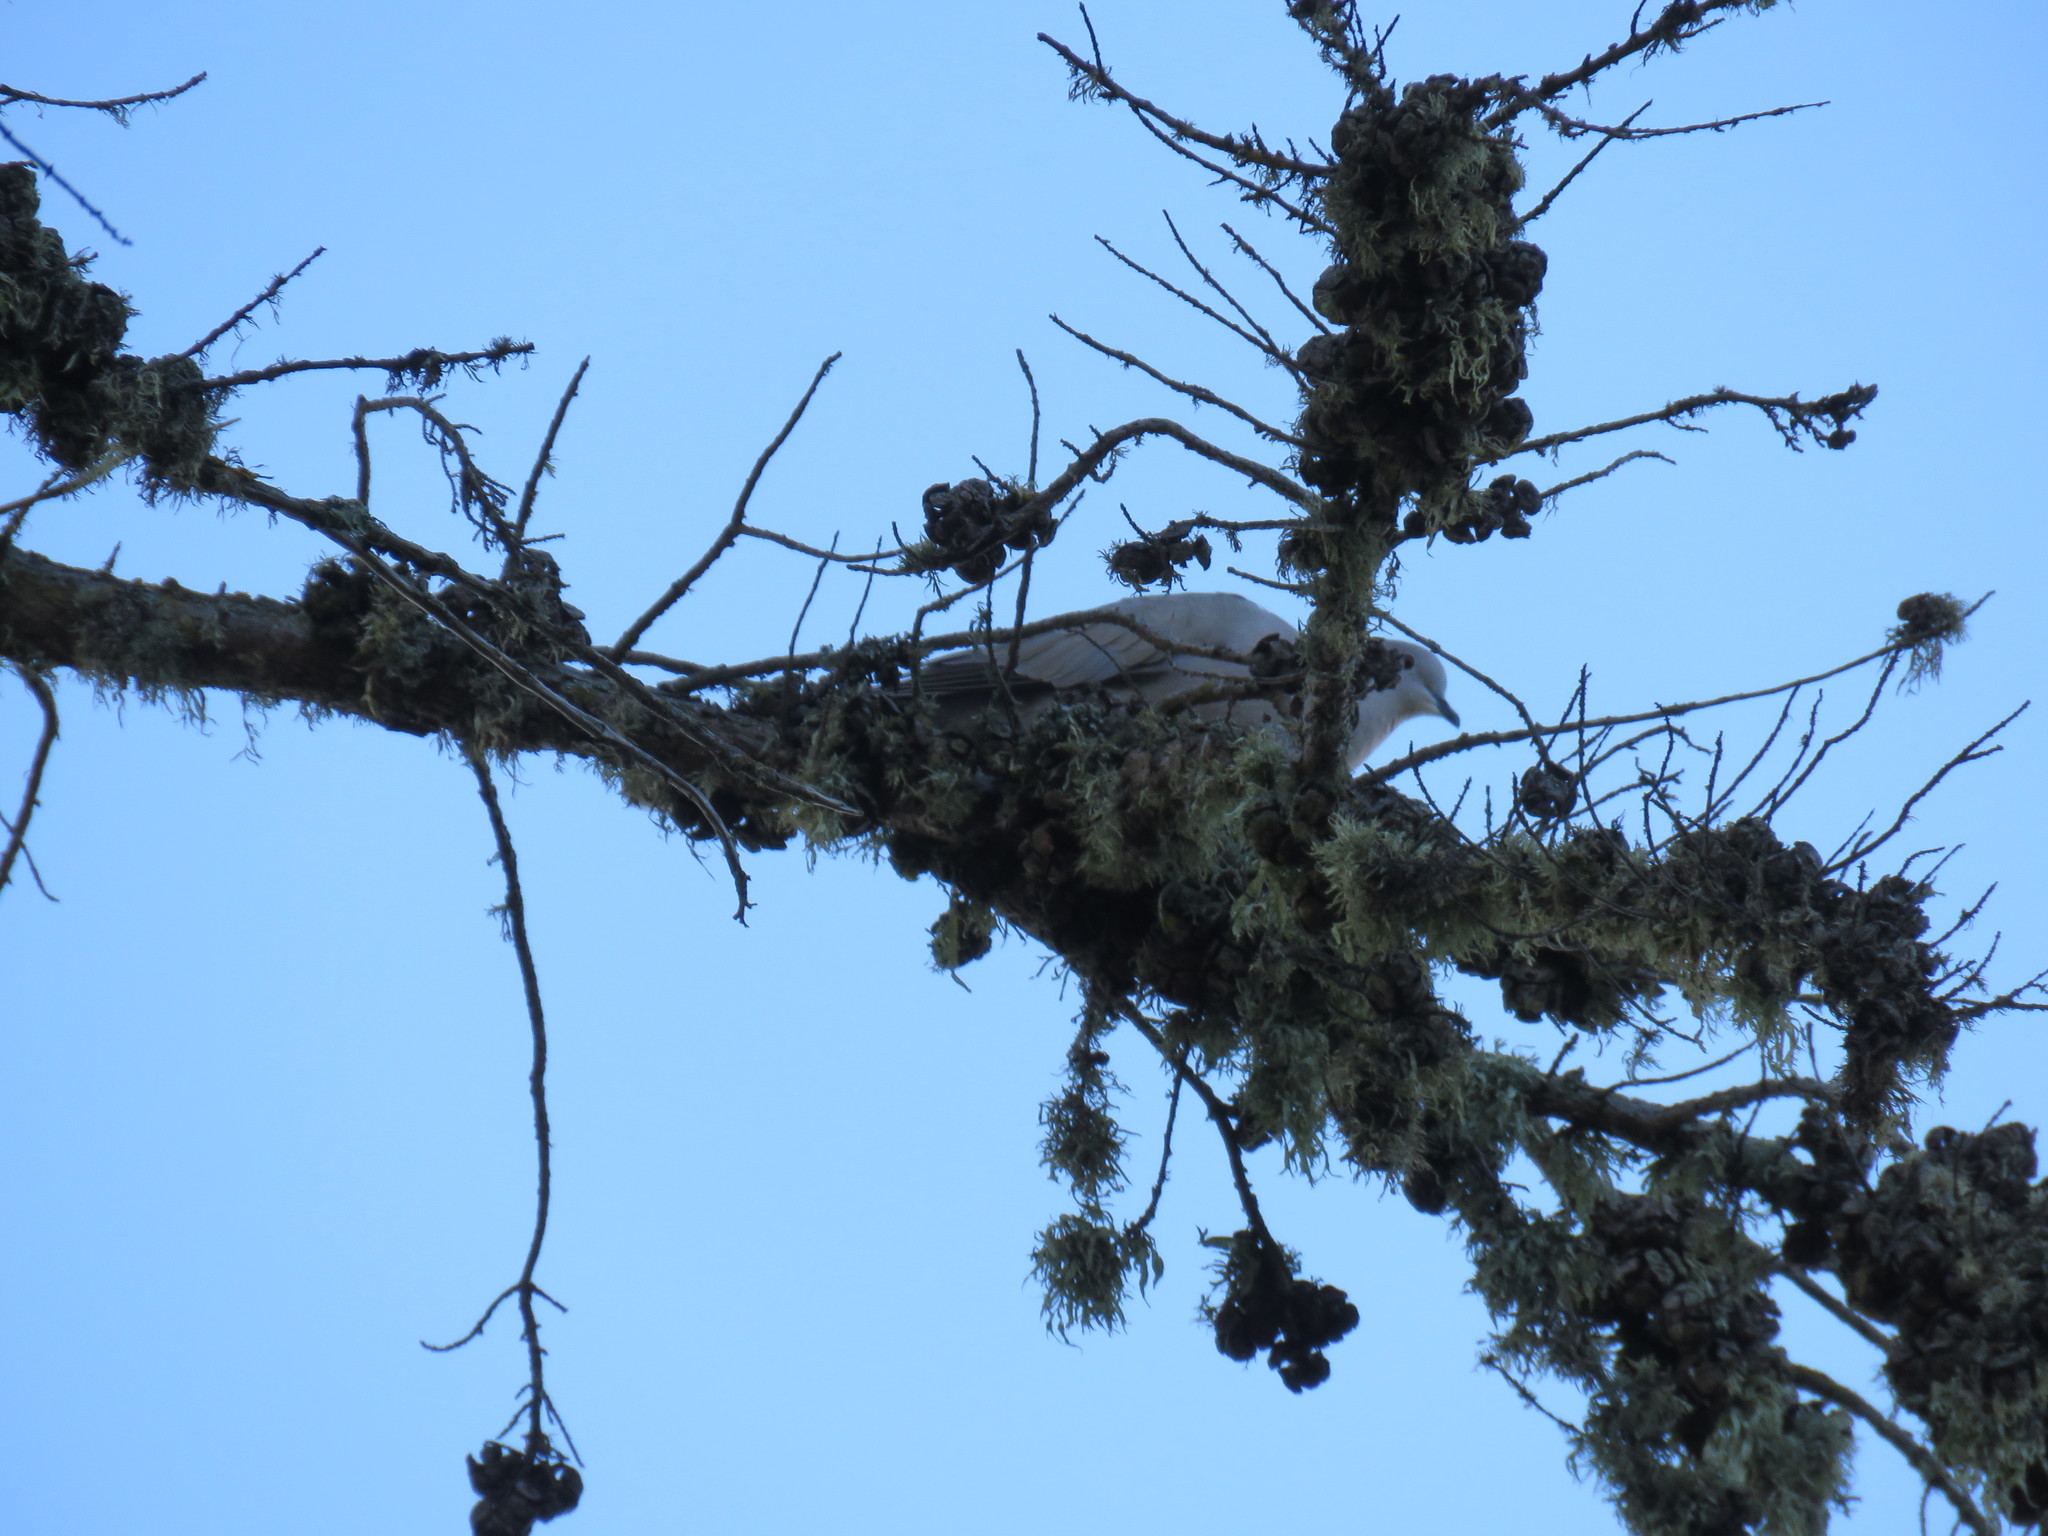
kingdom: Animalia
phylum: Chordata
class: Aves
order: Columbiformes
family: Columbidae
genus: Streptopelia
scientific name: Streptopelia decaocto
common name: Eurasian collared dove
